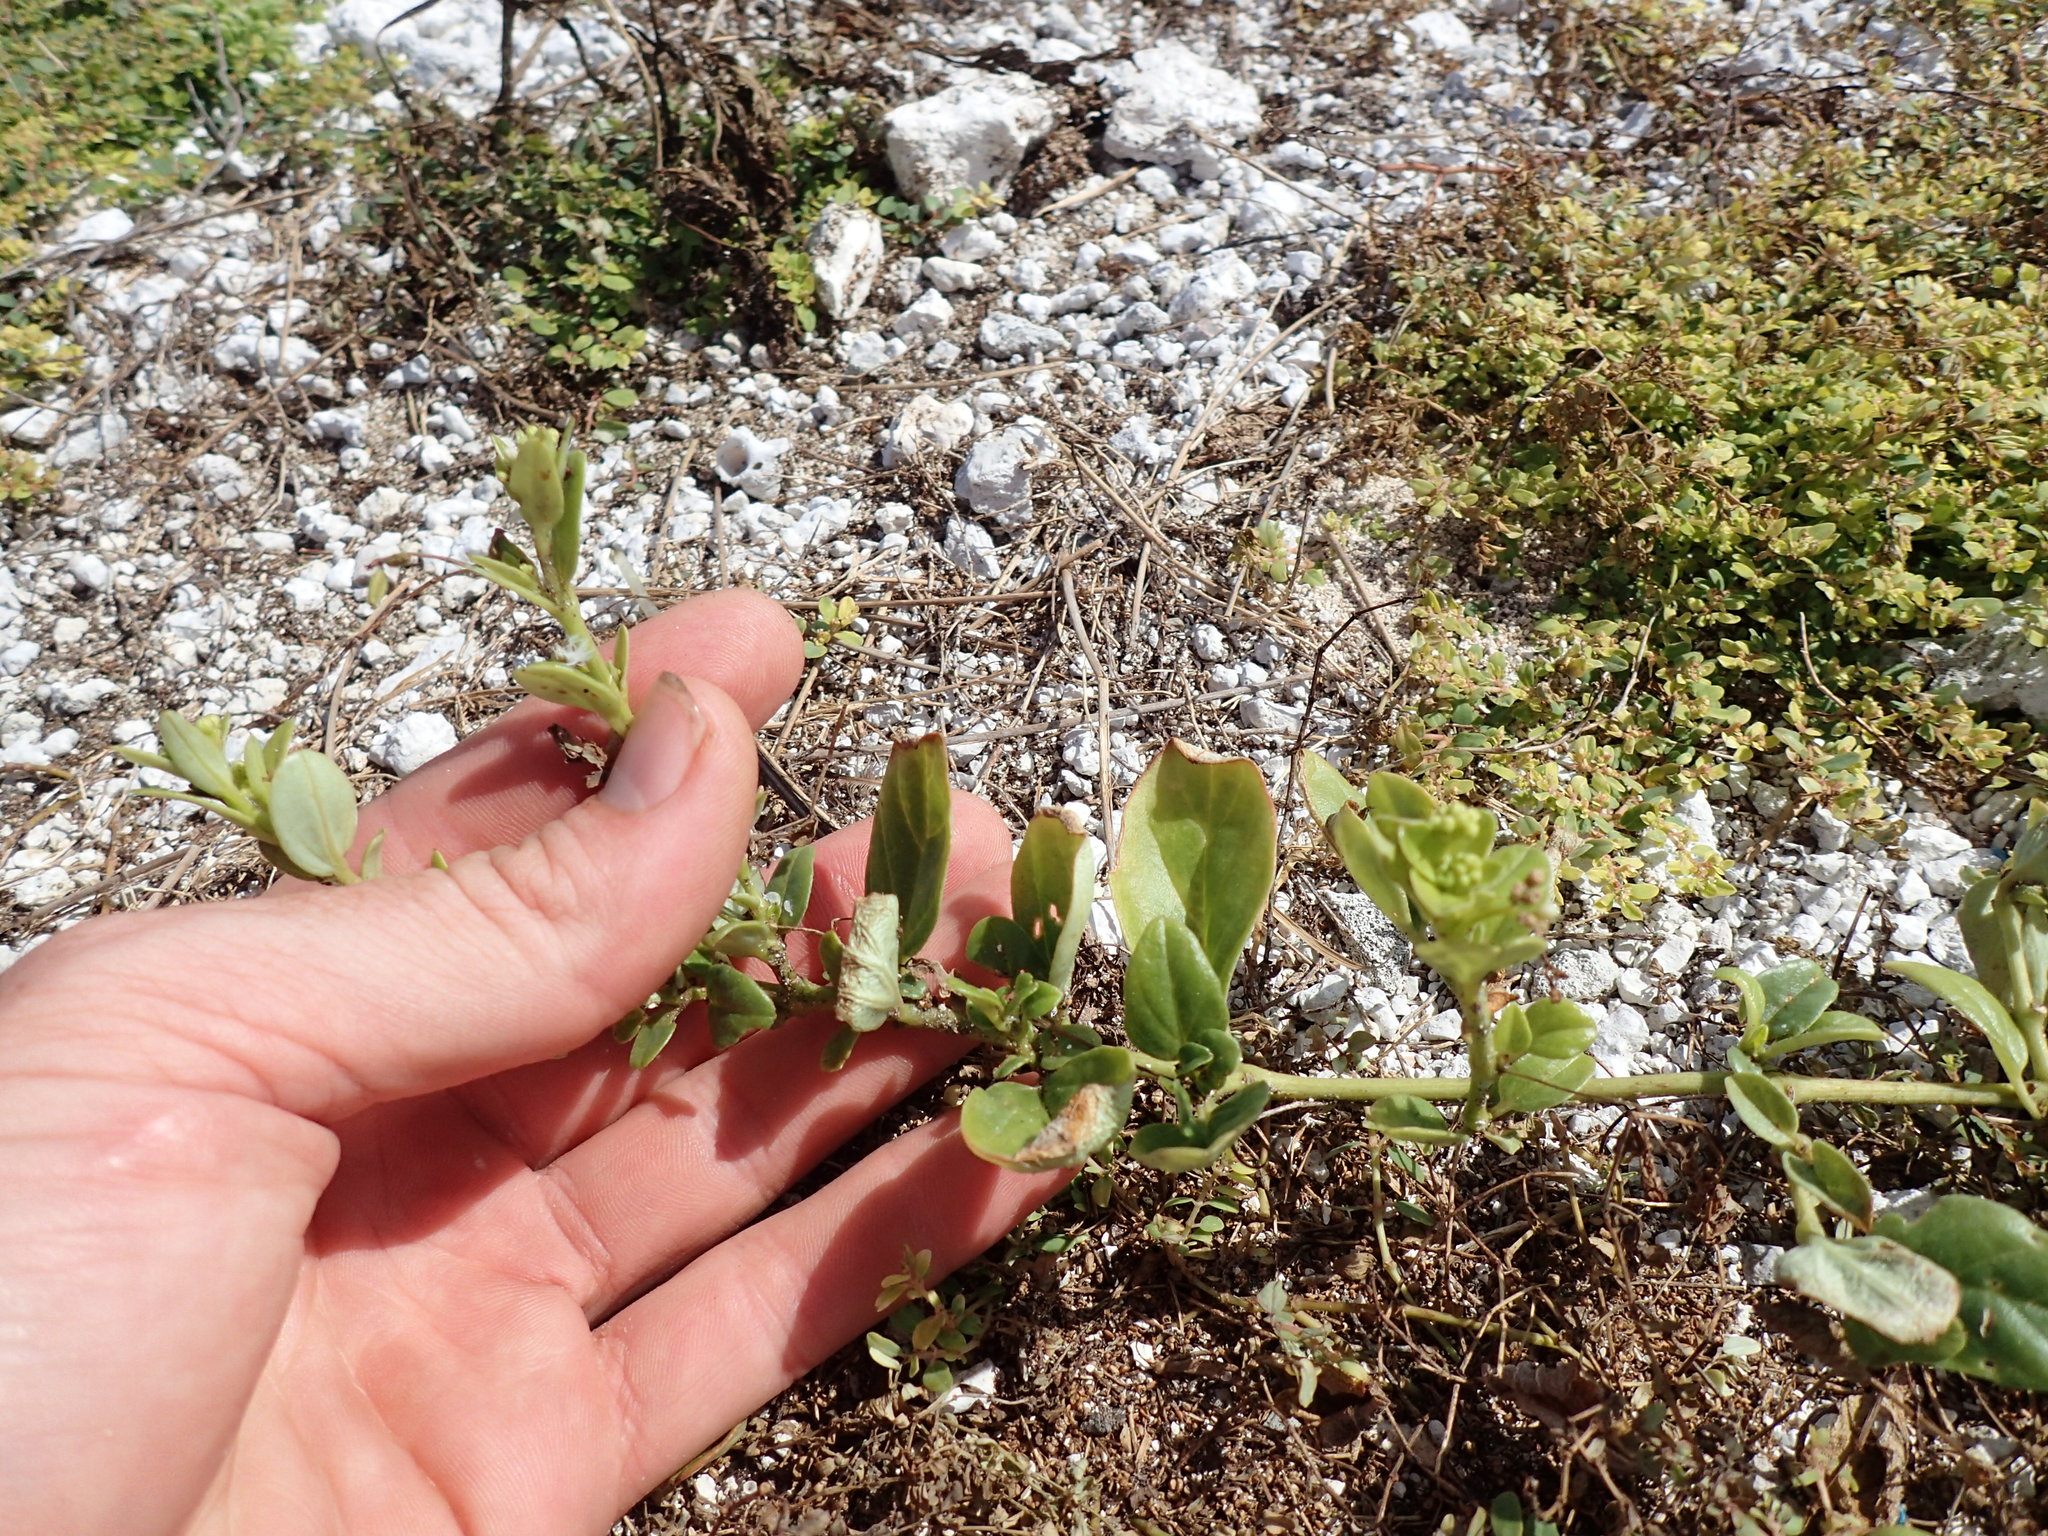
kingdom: Plantae
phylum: Tracheophyta
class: Magnoliopsida
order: Caryophyllales
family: Nyctaginaceae
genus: Boerhavia
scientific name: Boerhavia repens
